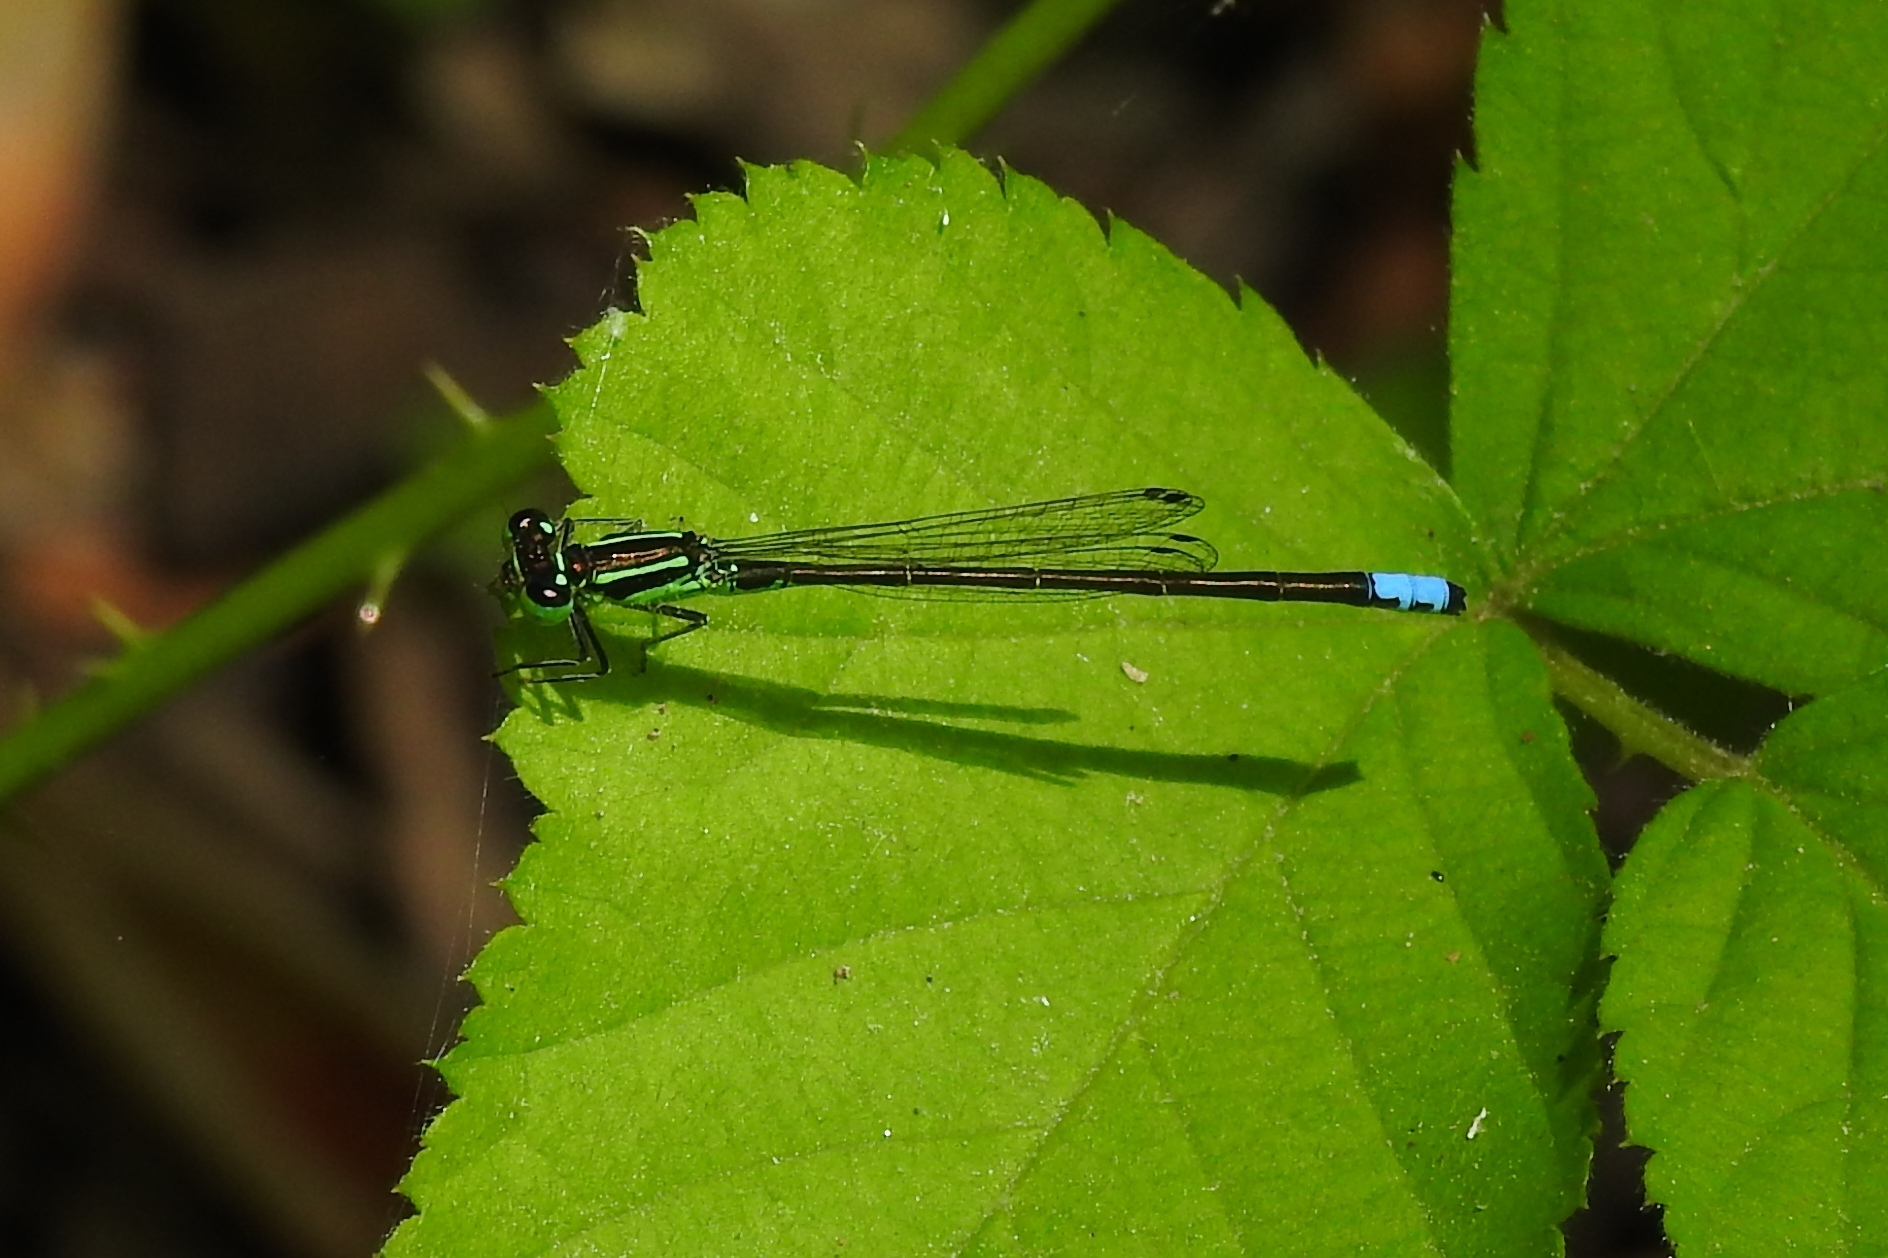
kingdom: Animalia
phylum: Arthropoda
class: Insecta
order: Odonata
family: Coenagrionidae
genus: Ischnura
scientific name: Ischnura verticalis
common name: Eastern forktail
